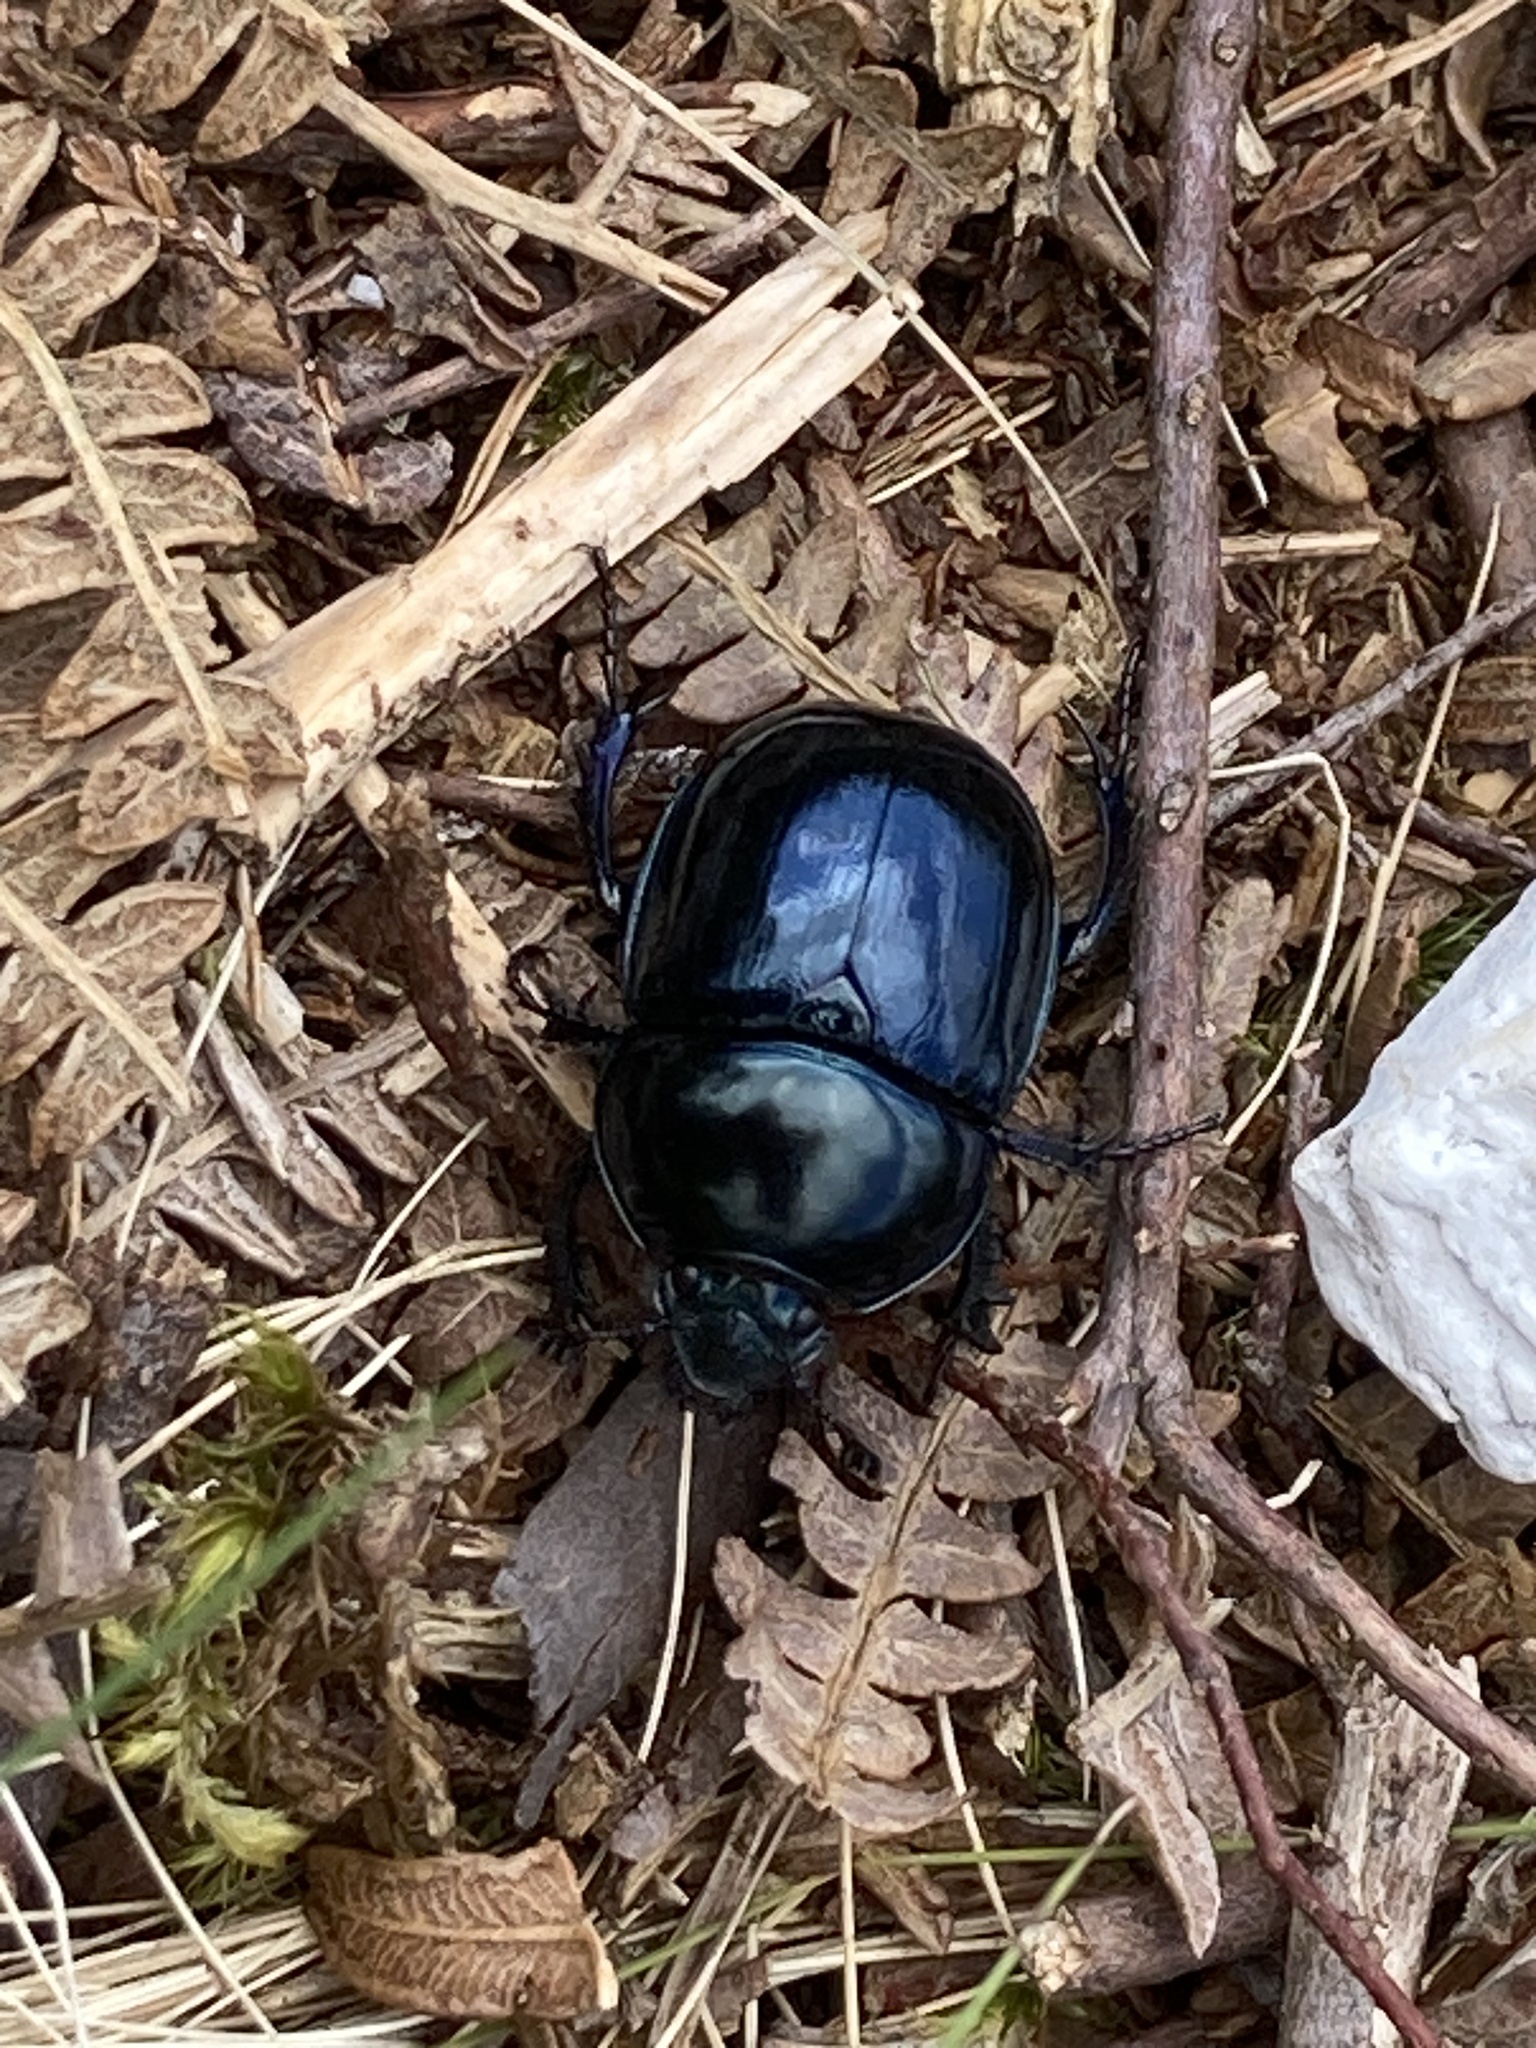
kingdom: Animalia
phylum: Arthropoda
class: Insecta
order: Coleoptera
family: Geotrupidae
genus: Anoplotrupes
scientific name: Anoplotrupes stercorosus
